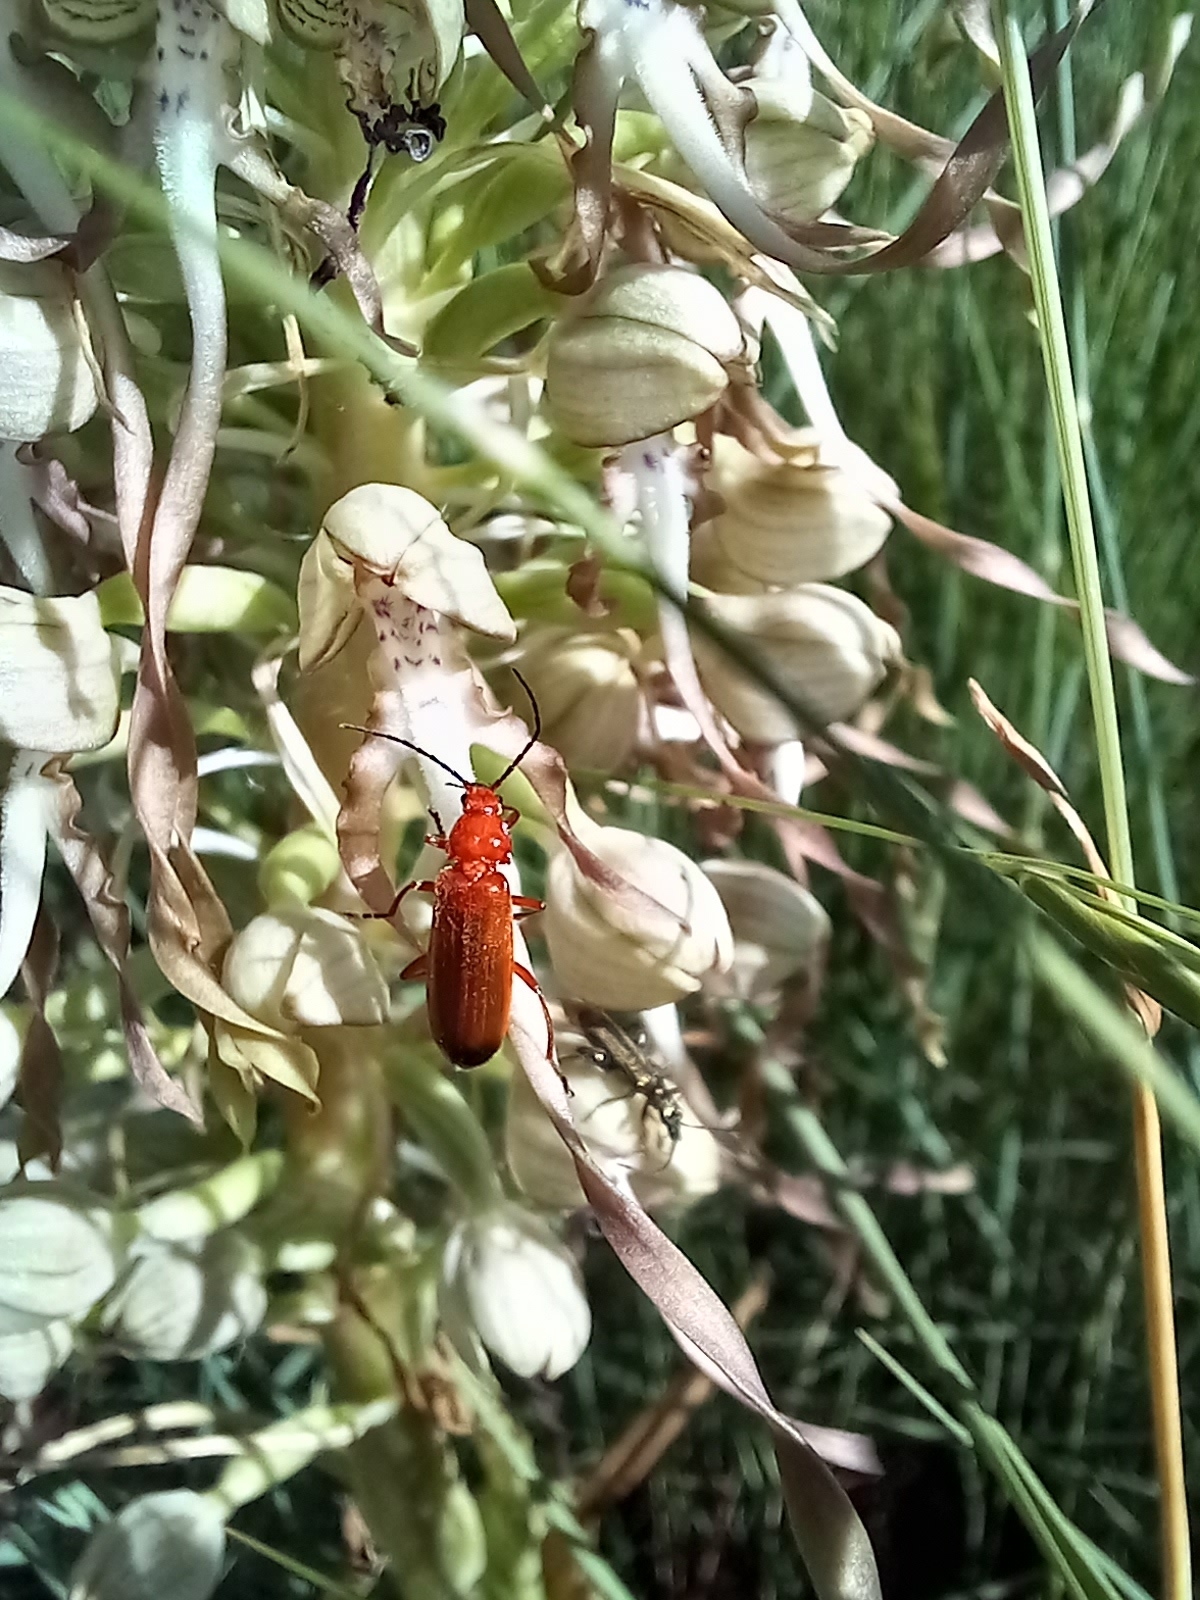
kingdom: Animalia
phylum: Arthropoda
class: Insecta
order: Coleoptera
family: Cantharidae
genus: Rhagonycha
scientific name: Rhagonycha fulva
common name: Common red soldier beetle
